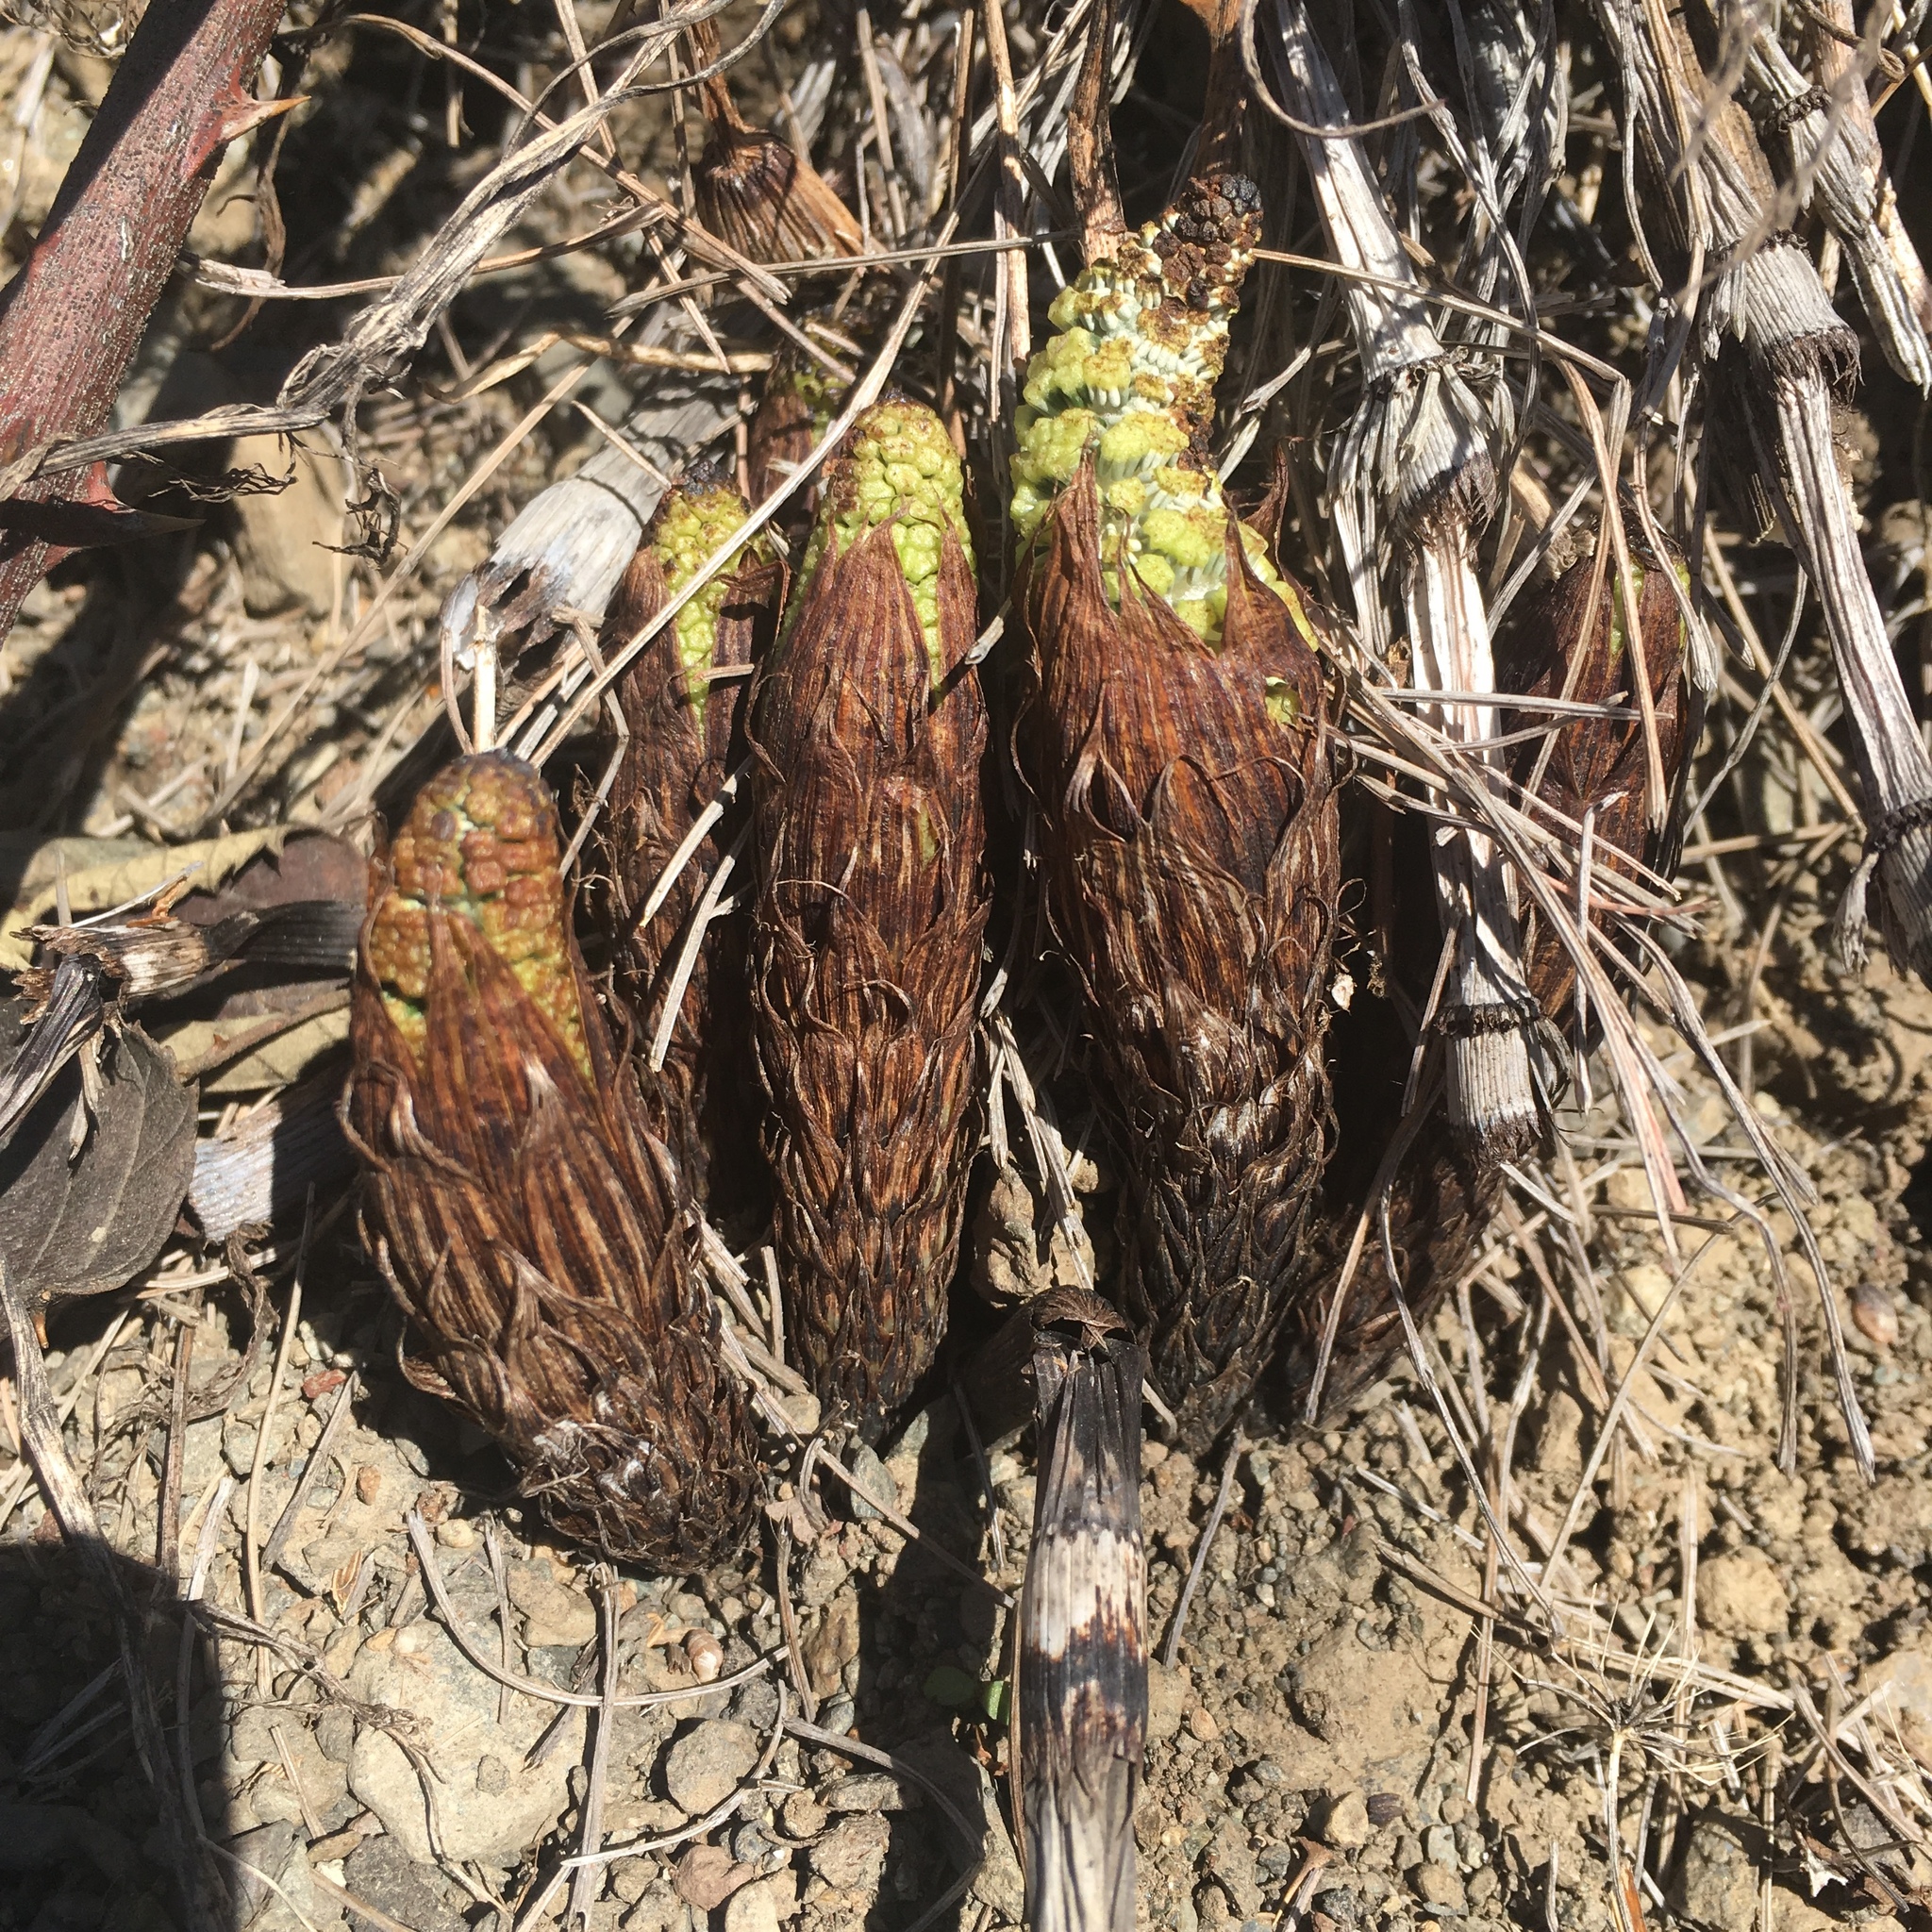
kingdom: Plantae
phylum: Tracheophyta
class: Polypodiopsida
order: Equisetales
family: Equisetaceae
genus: Equisetum
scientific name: Equisetum braunii
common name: Braun's horsetail
